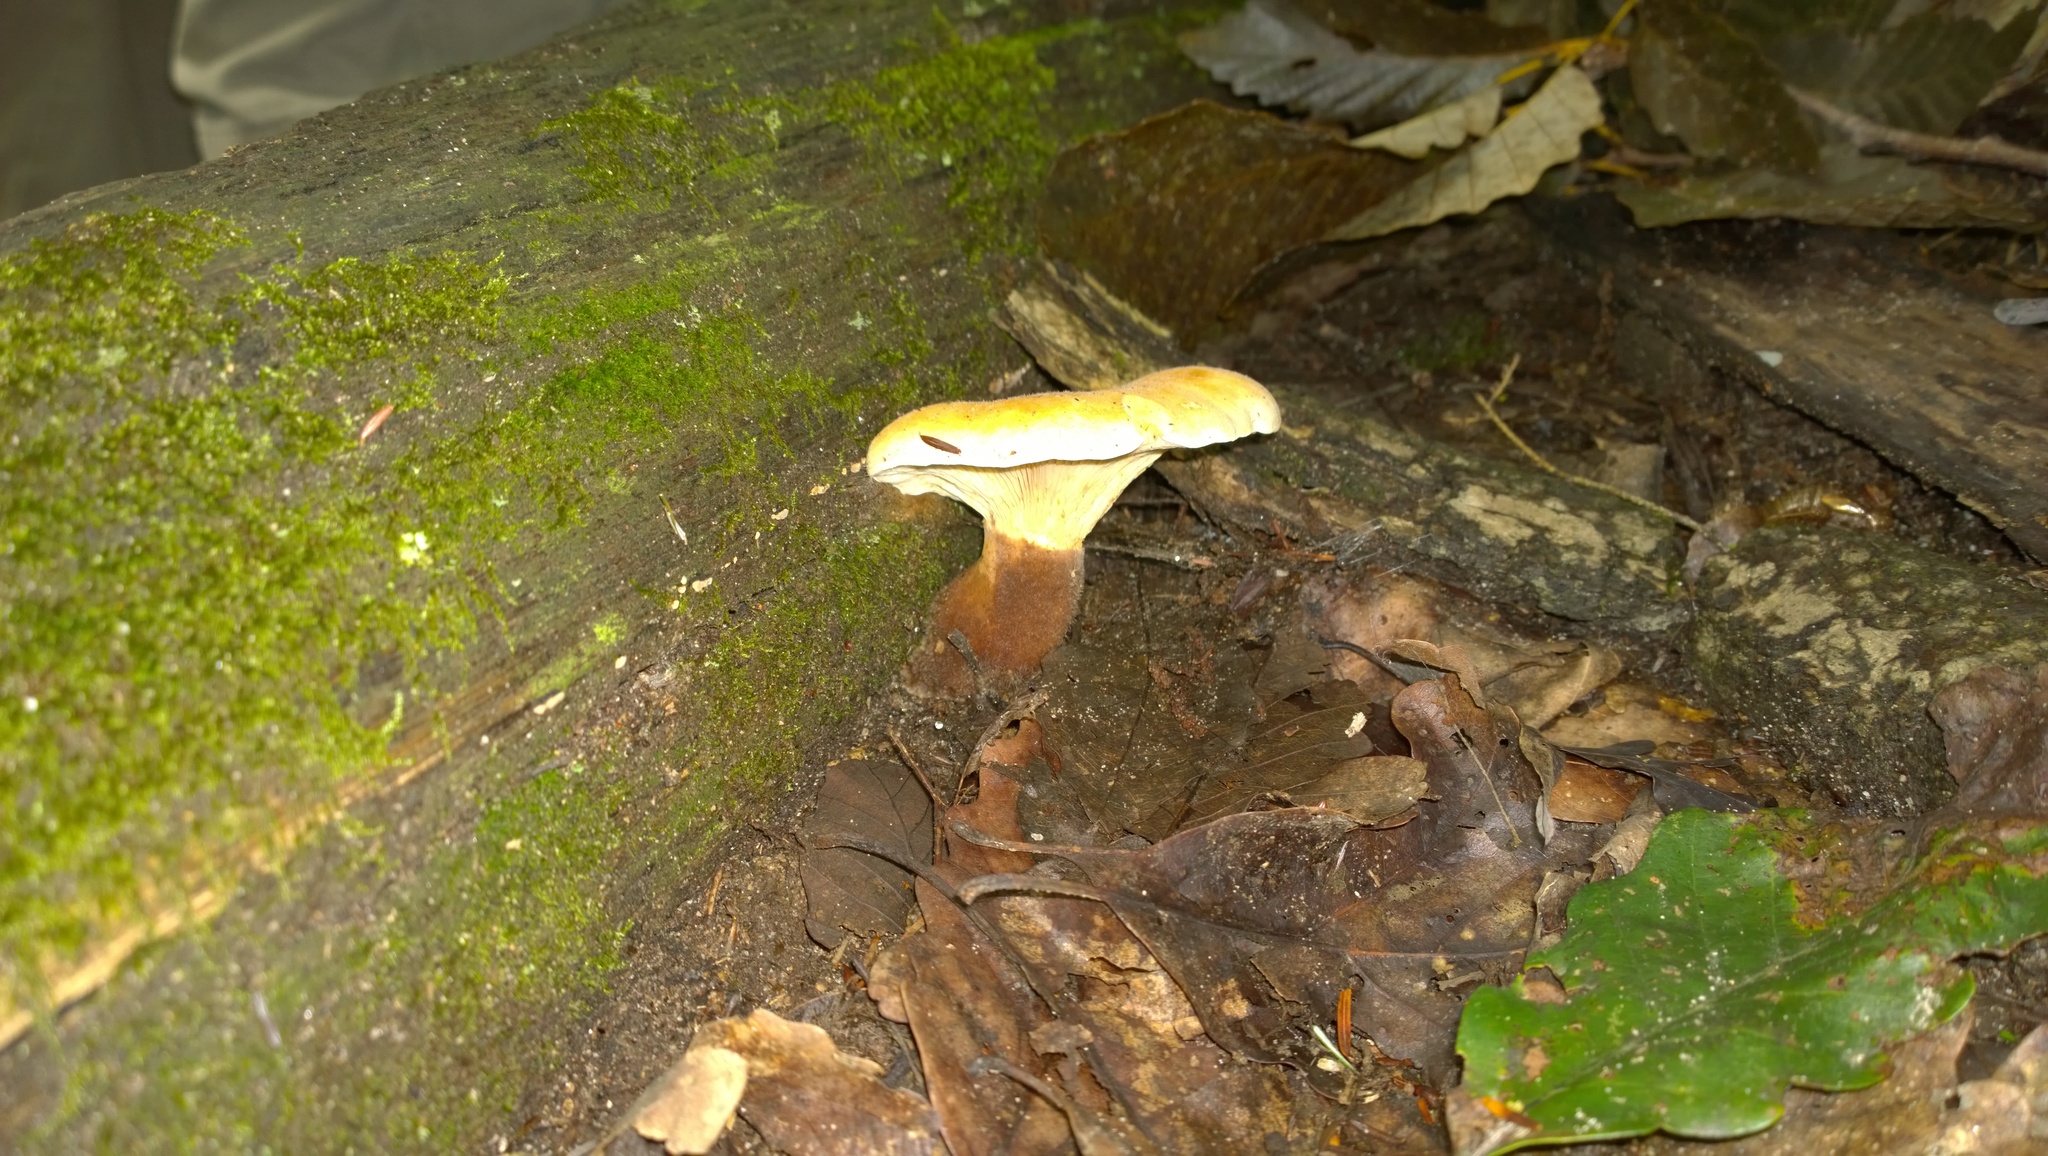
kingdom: Fungi
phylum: Basidiomycota
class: Agaricomycetes
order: Boletales
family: Tapinellaceae
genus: Tapinella
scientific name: Tapinella atrotomentosa
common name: Velvet rollrim
